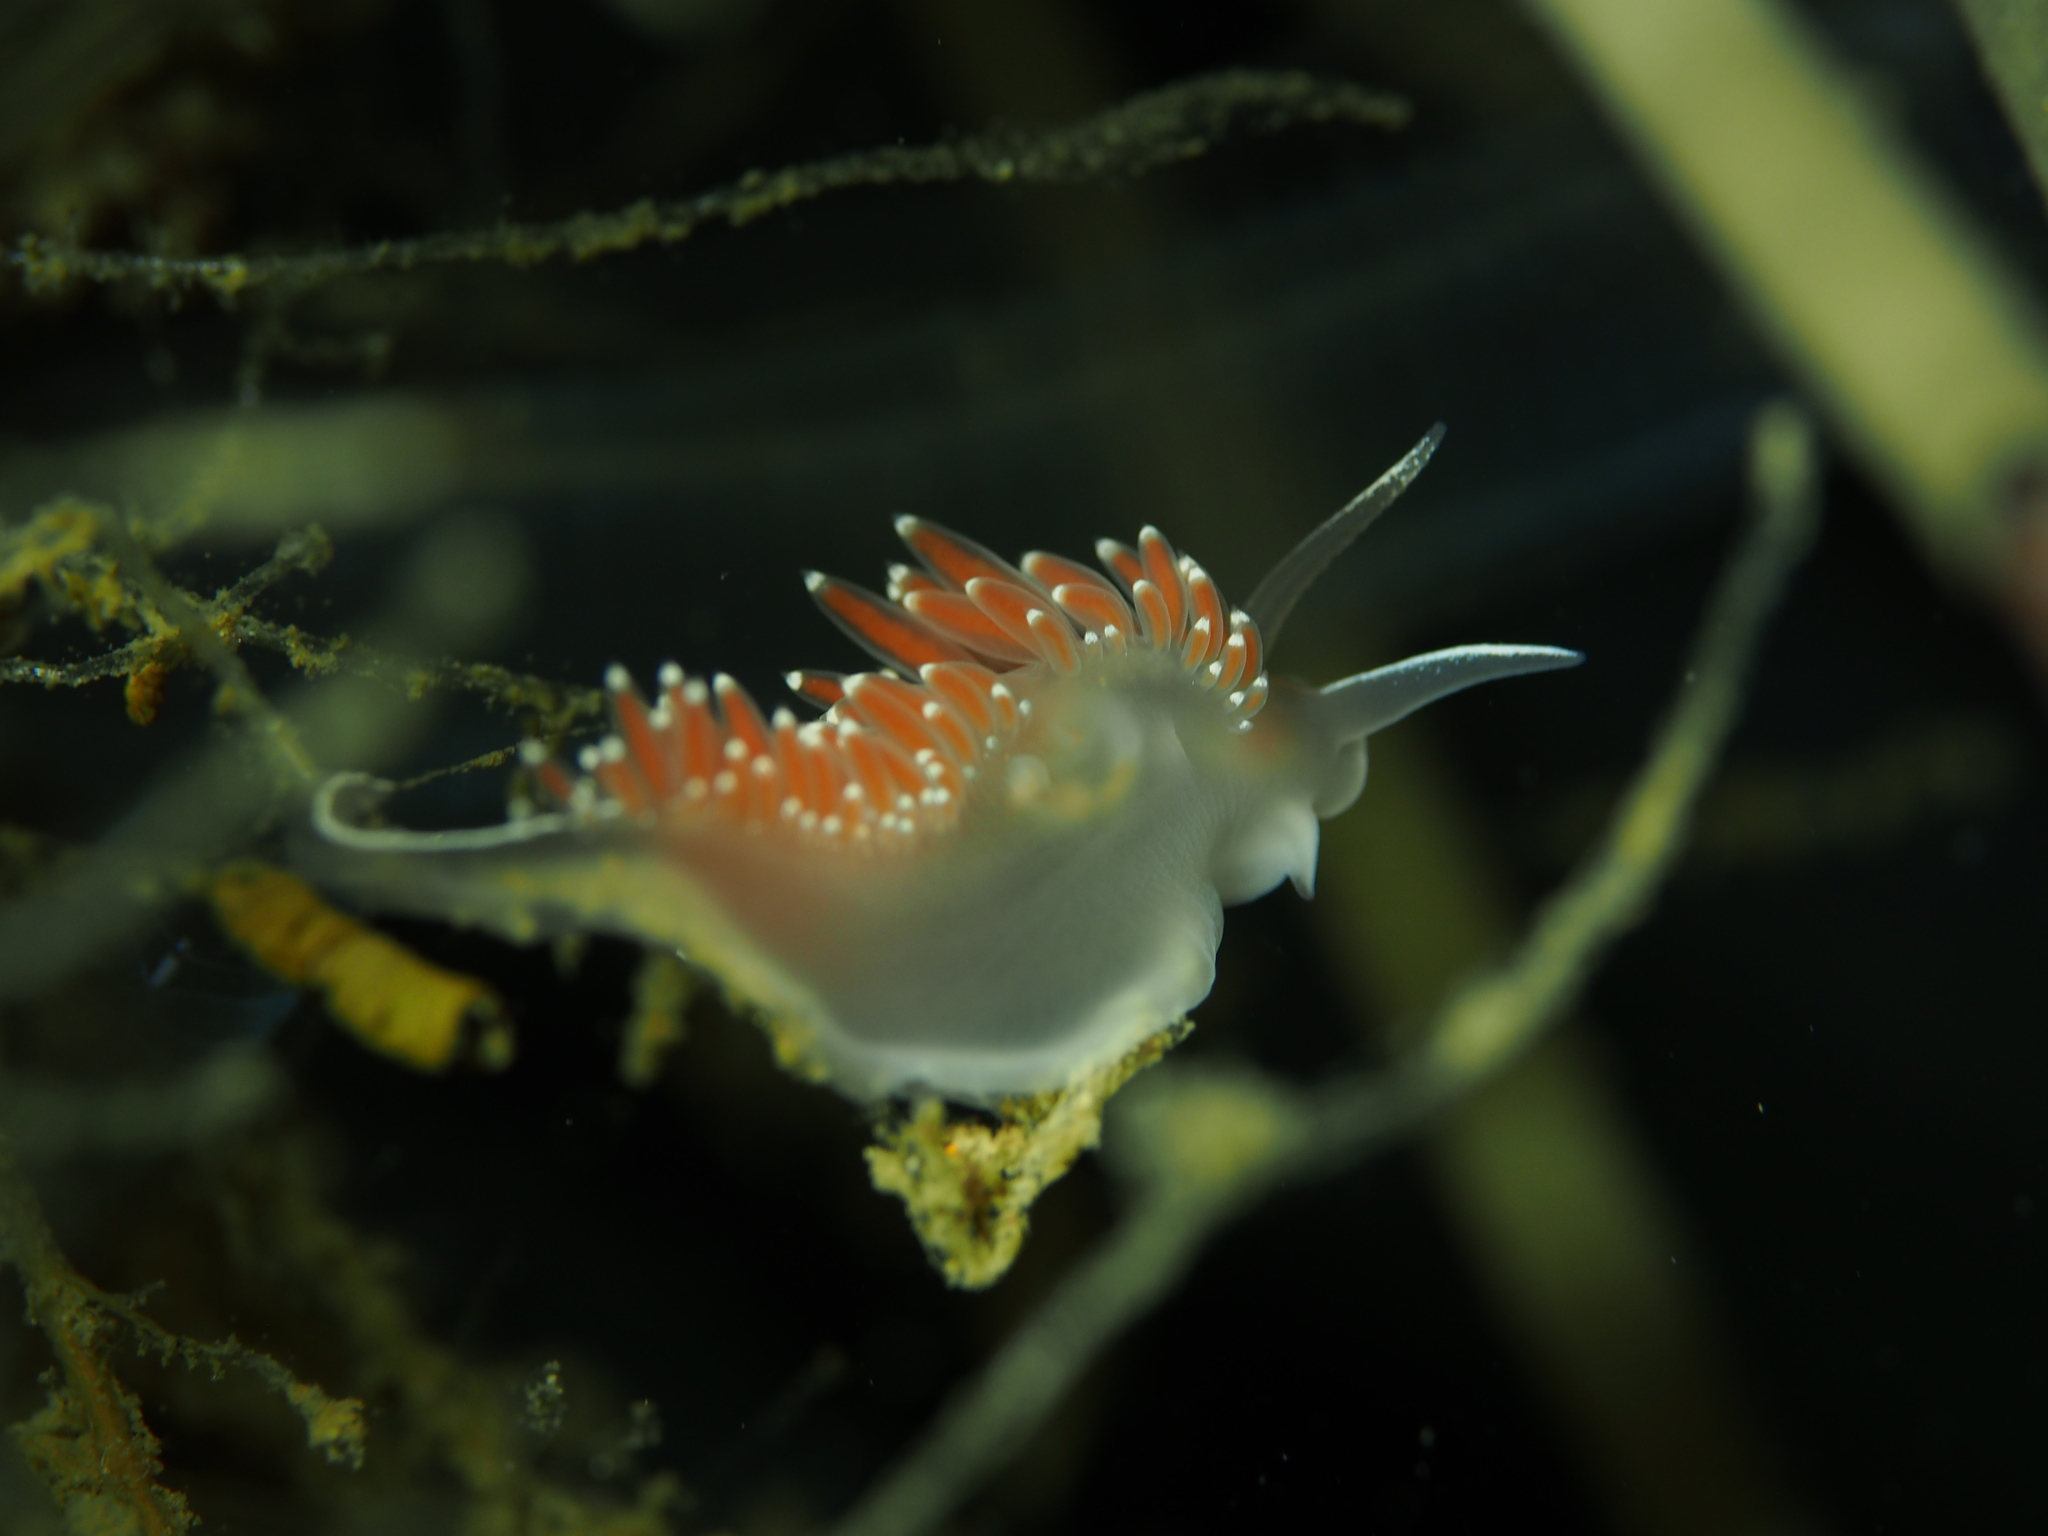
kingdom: Animalia
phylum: Mollusca
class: Gastropoda
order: Nudibranchia
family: Coryphellidae
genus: Coryphella
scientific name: Coryphella verrucosa
